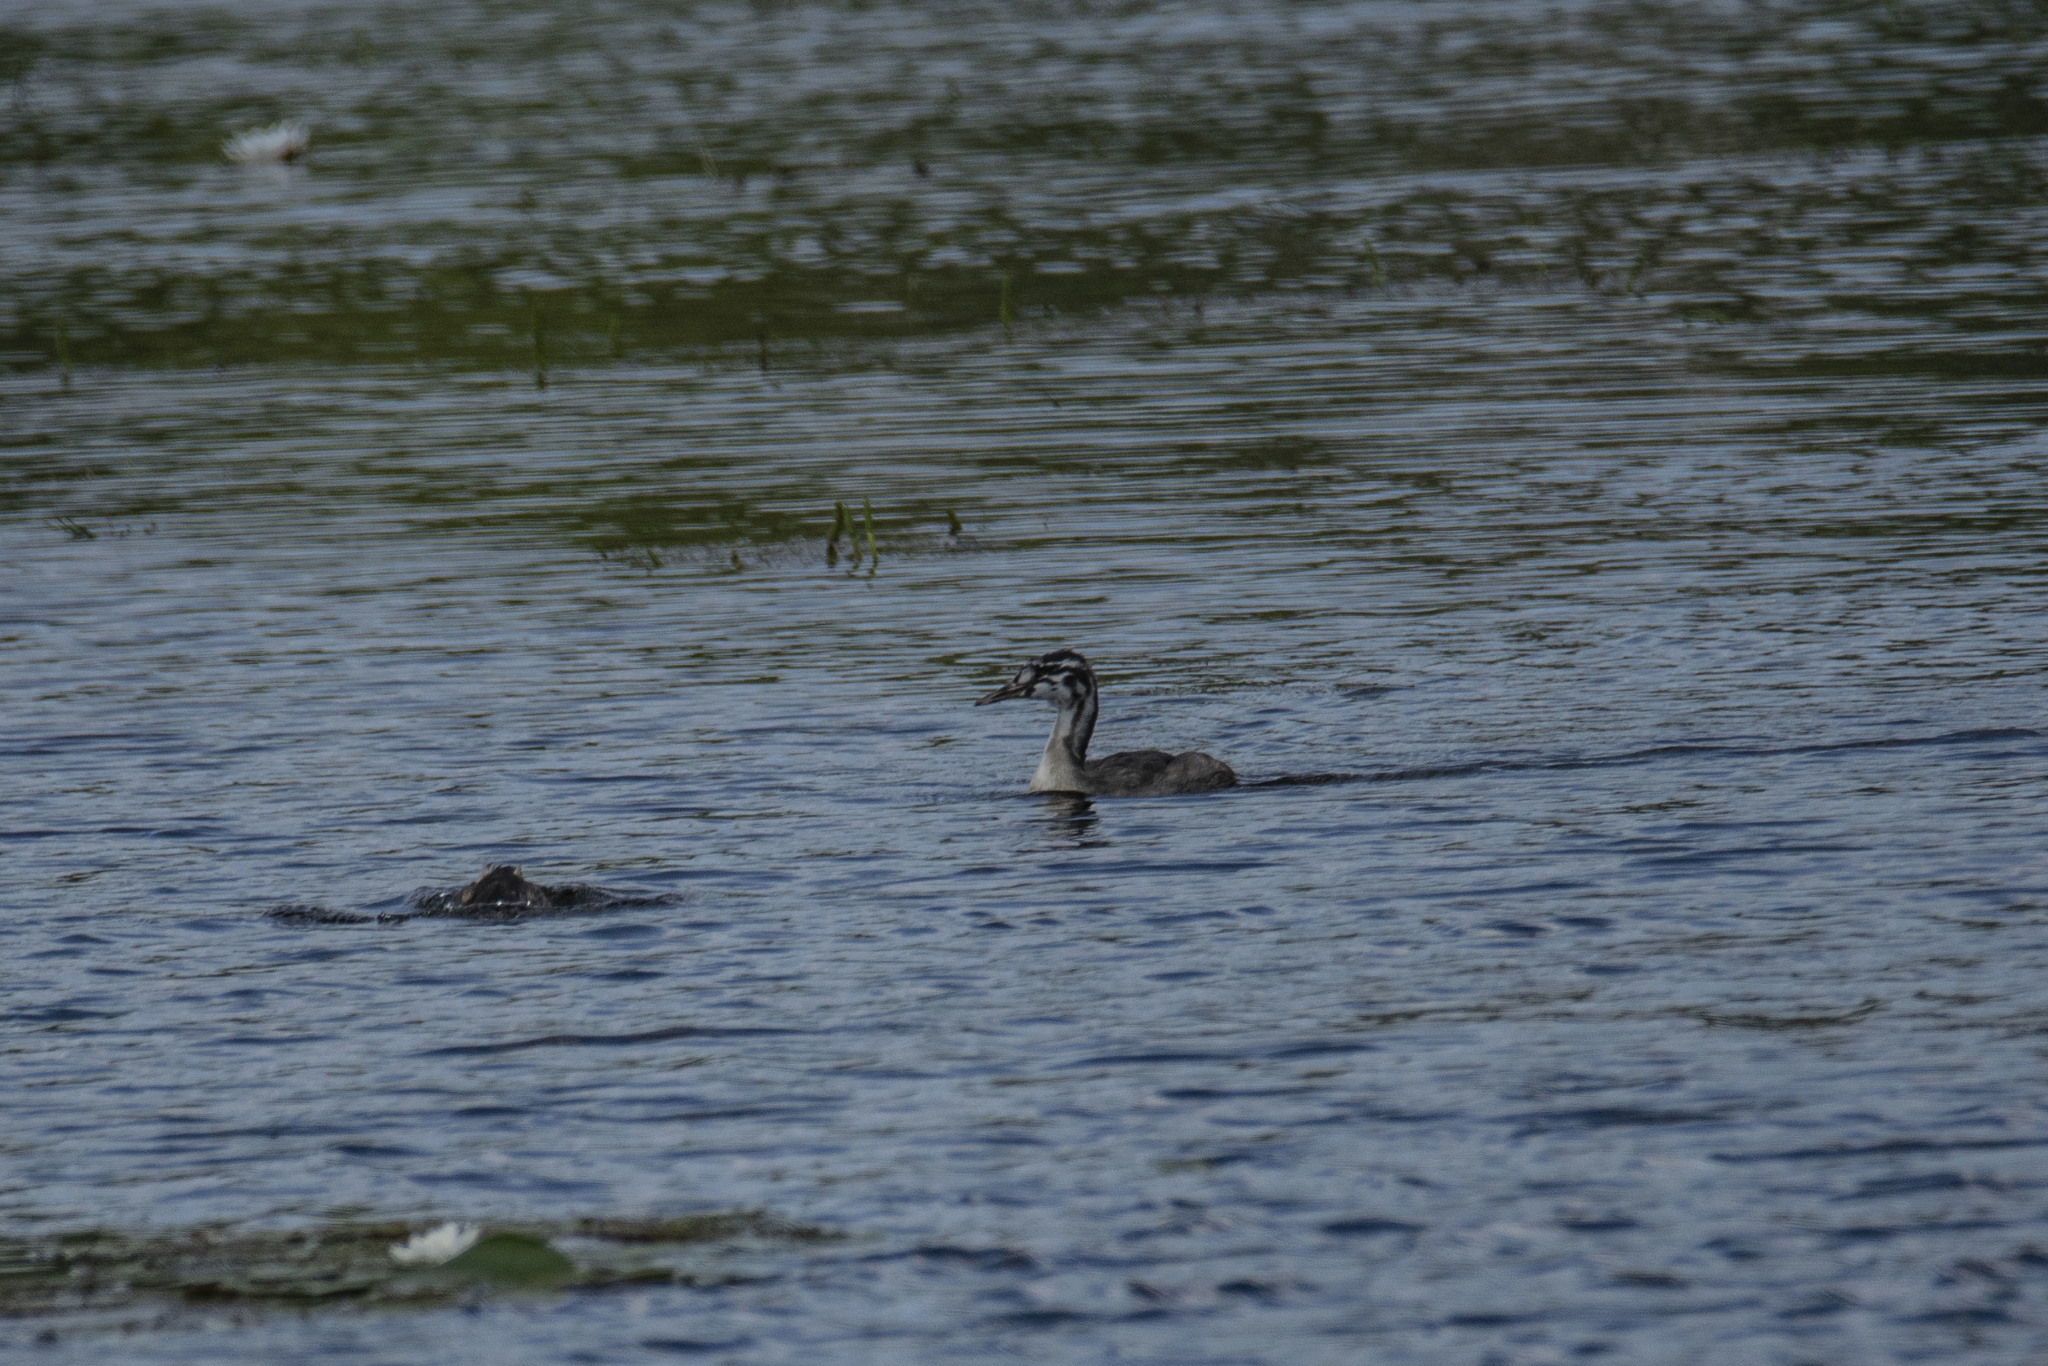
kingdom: Animalia
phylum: Chordata
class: Aves
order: Podicipediformes
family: Podicipedidae
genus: Podiceps
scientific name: Podiceps cristatus
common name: Great crested grebe
